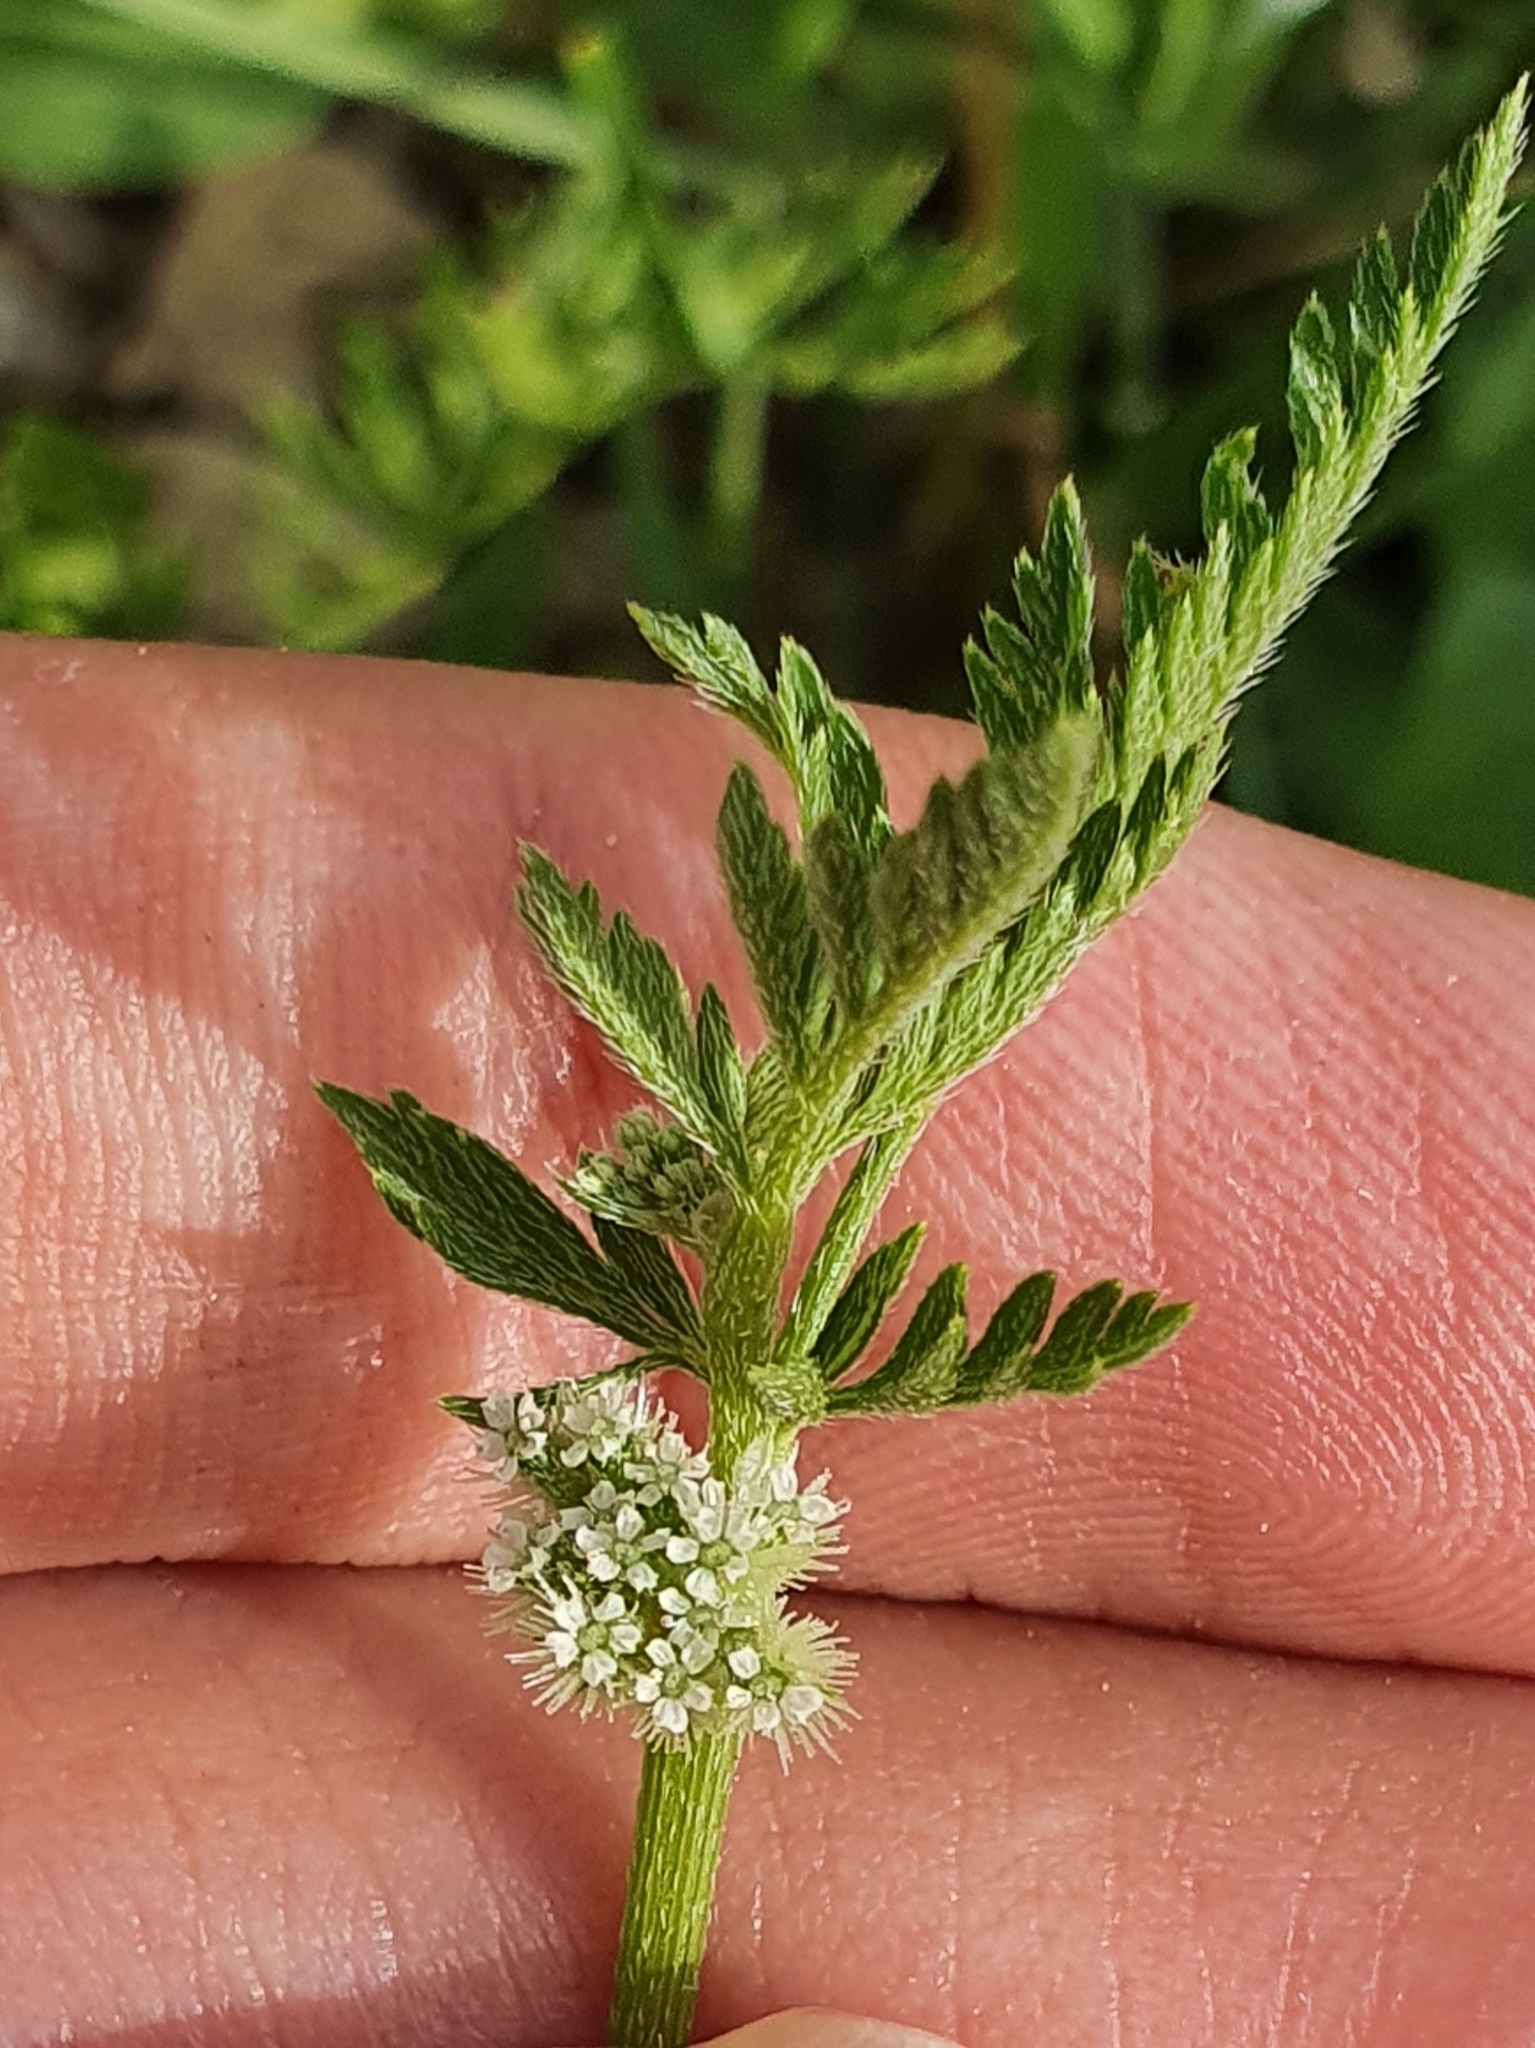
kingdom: Plantae
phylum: Tracheophyta
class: Magnoliopsida
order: Apiales
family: Apiaceae
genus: Torilis
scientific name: Torilis nodosa
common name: Knotted hedge-parsley
